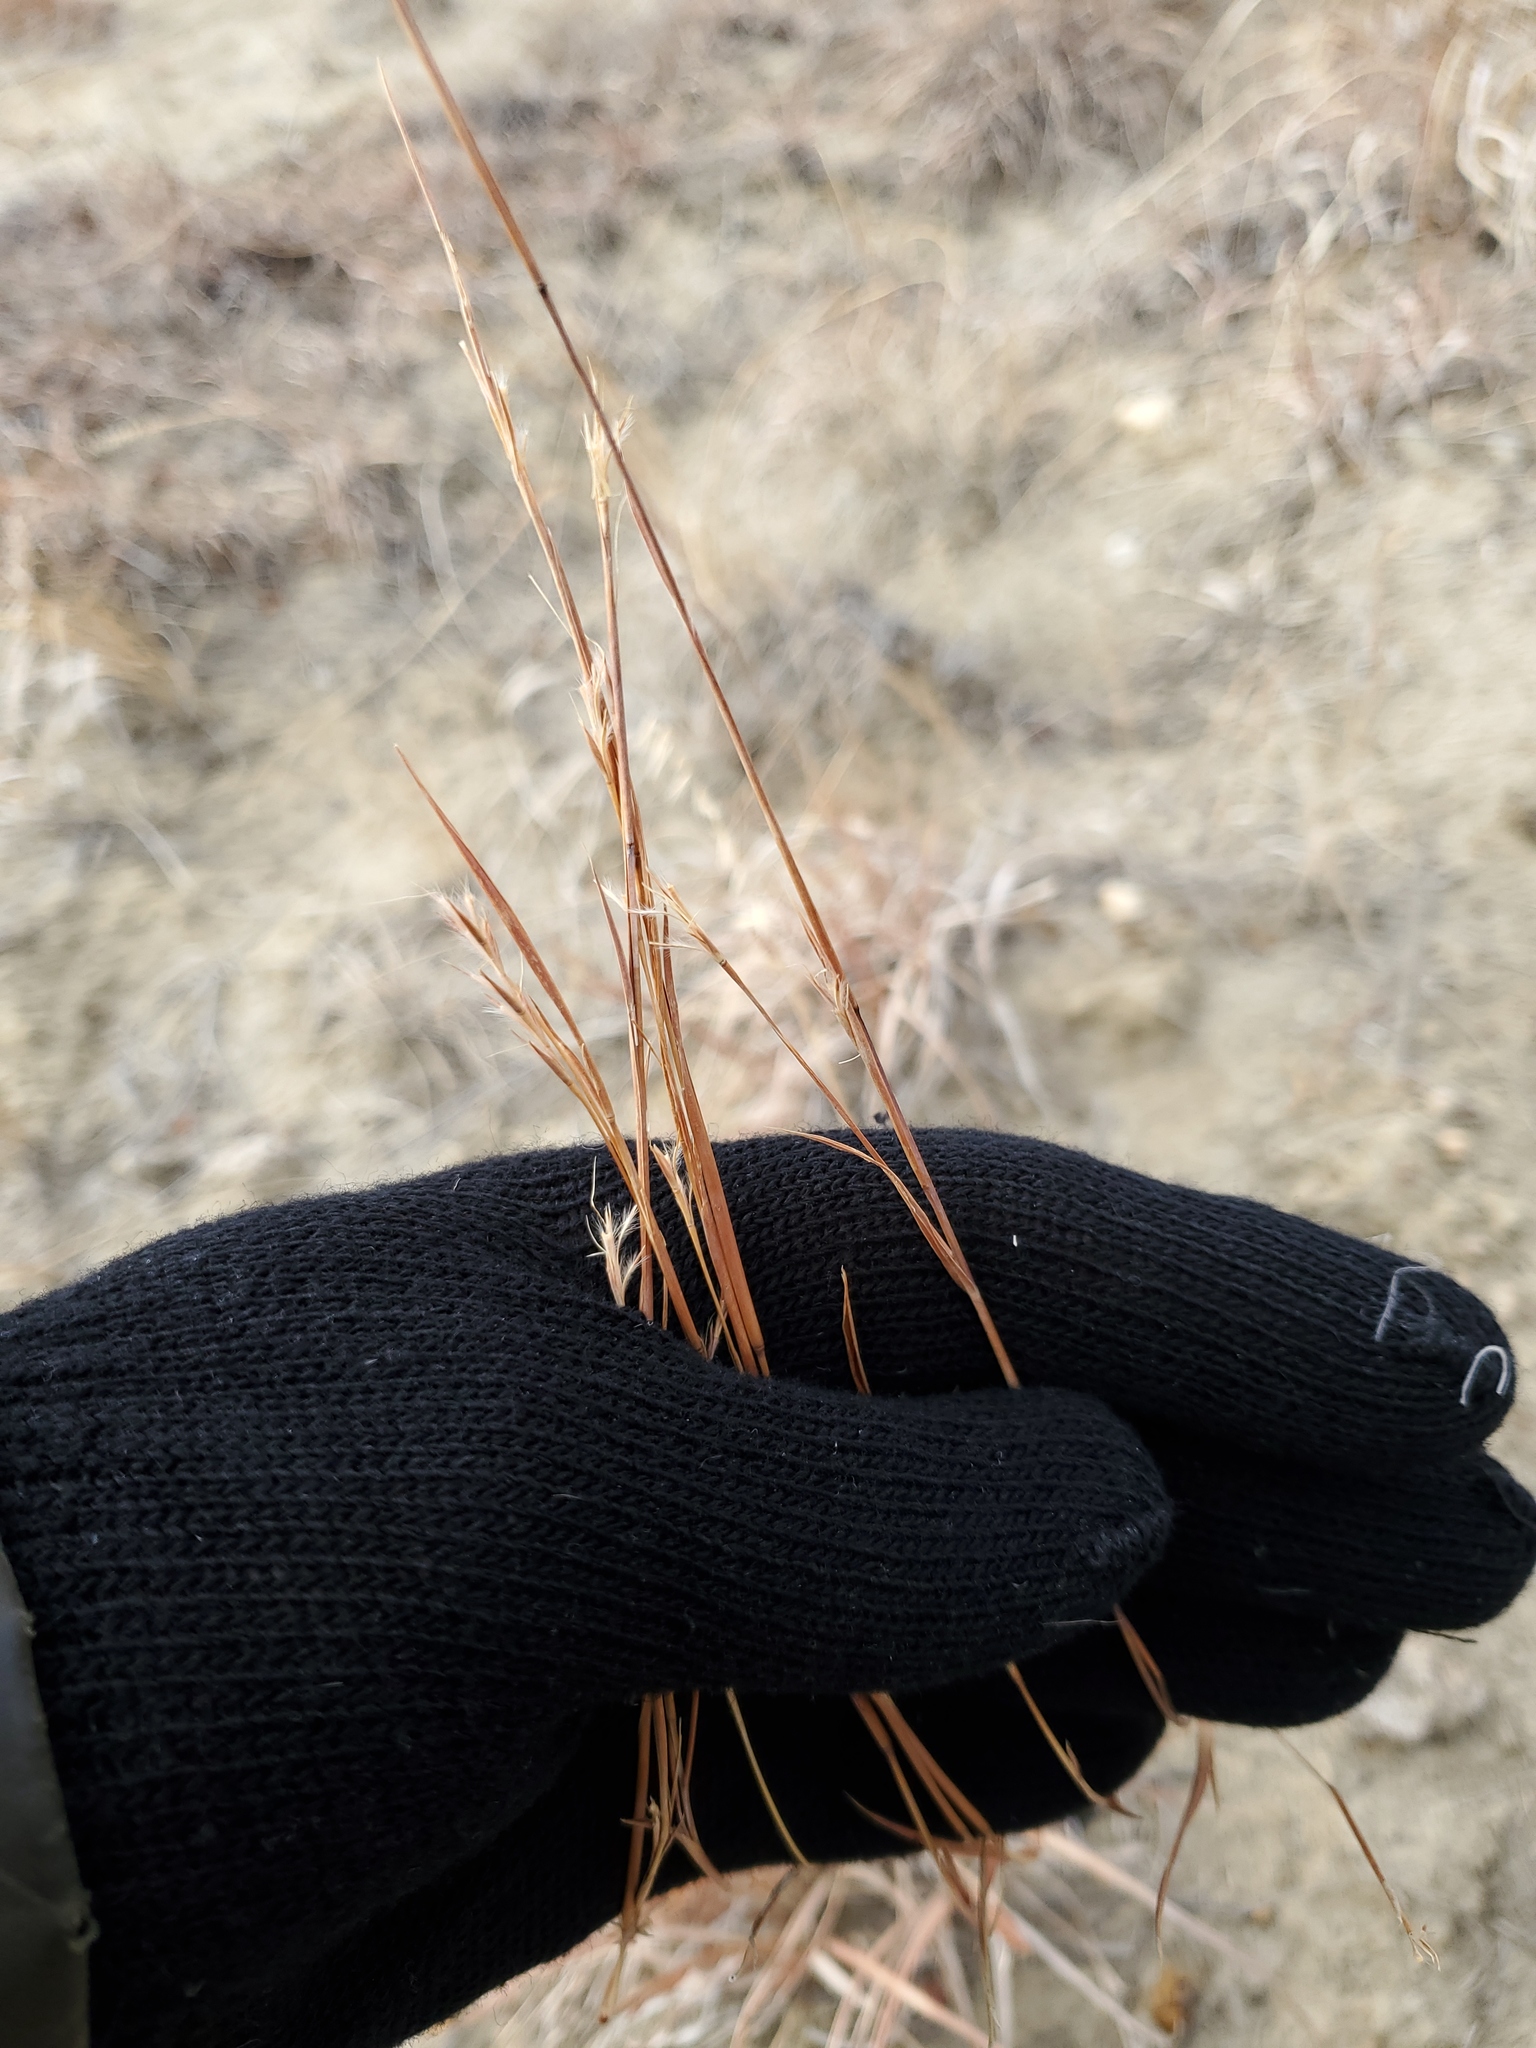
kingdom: Plantae
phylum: Tracheophyta
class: Liliopsida
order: Poales
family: Poaceae
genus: Schizachyrium
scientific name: Schizachyrium scoparium
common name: Little bluestem
